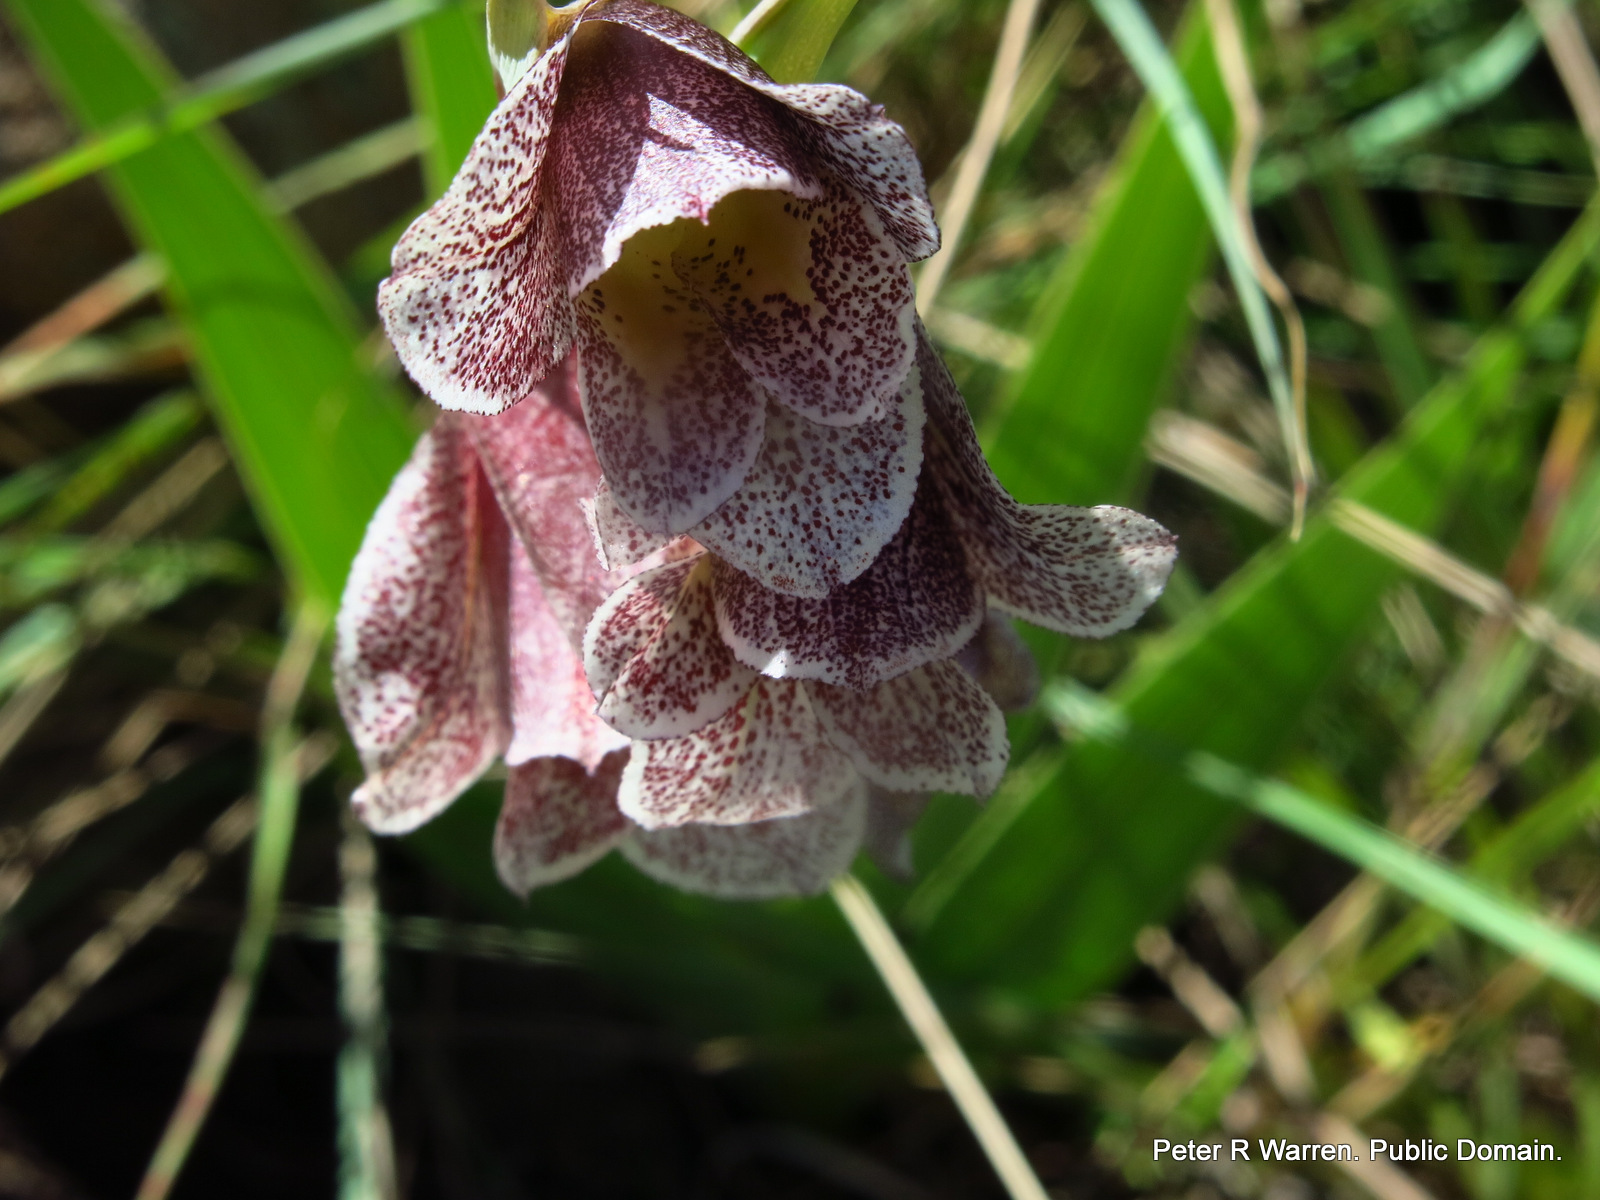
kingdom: Plantae
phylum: Tracheophyta
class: Liliopsida
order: Asparagales
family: Iridaceae
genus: Gladiolus
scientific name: Gladiolus ecklonii
